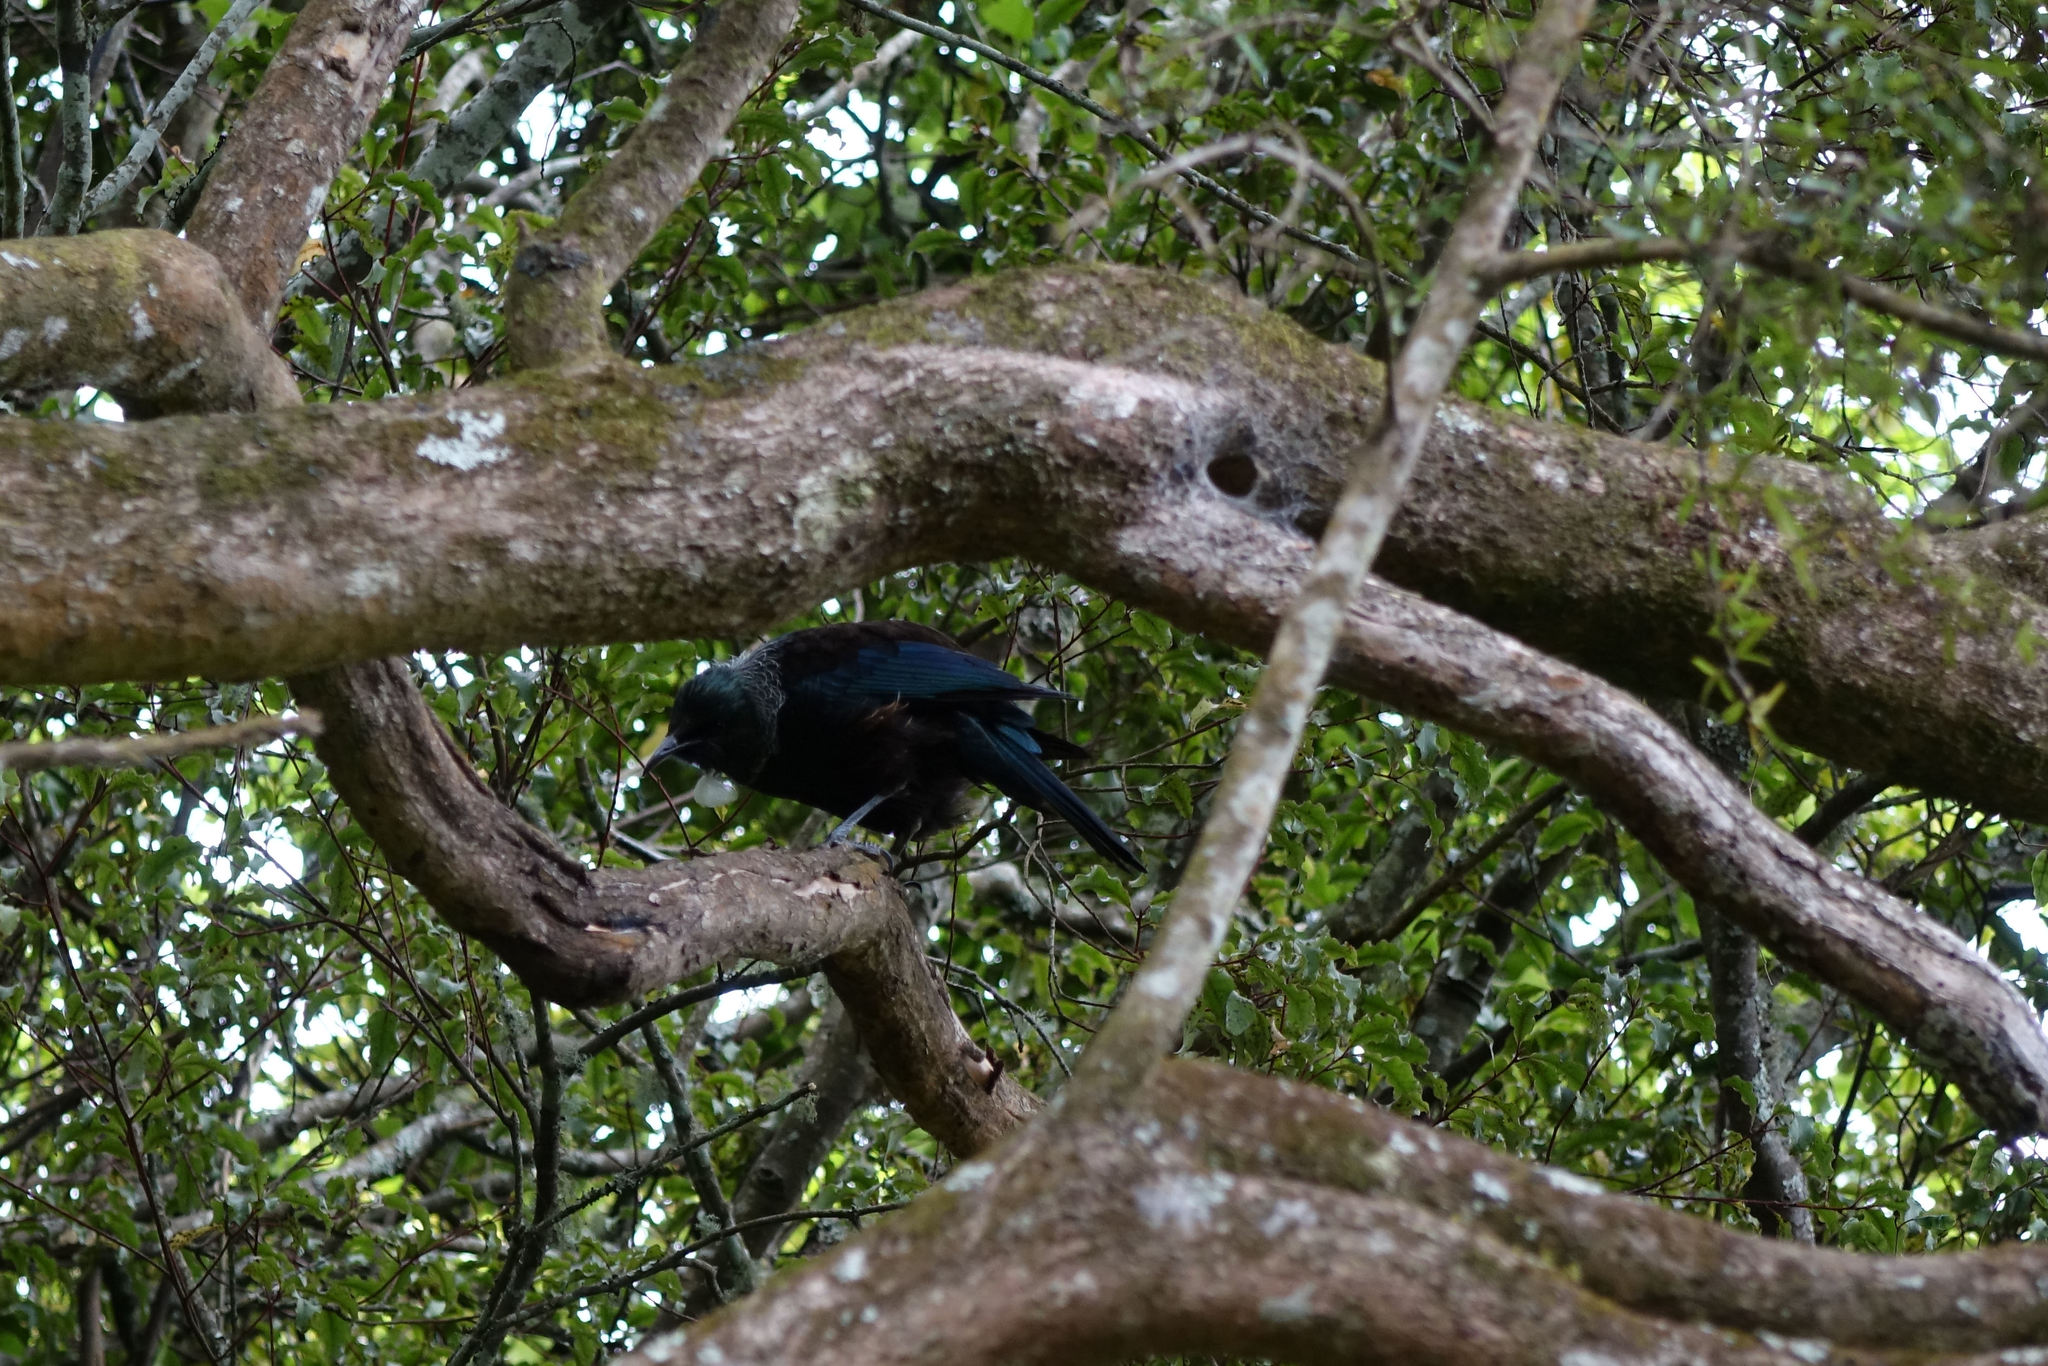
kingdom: Animalia
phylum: Chordata
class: Aves
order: Passeriformes
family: Meliphagidae
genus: Prosthemadera
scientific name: Prosthemadera novaeseelandiae
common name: Tui
